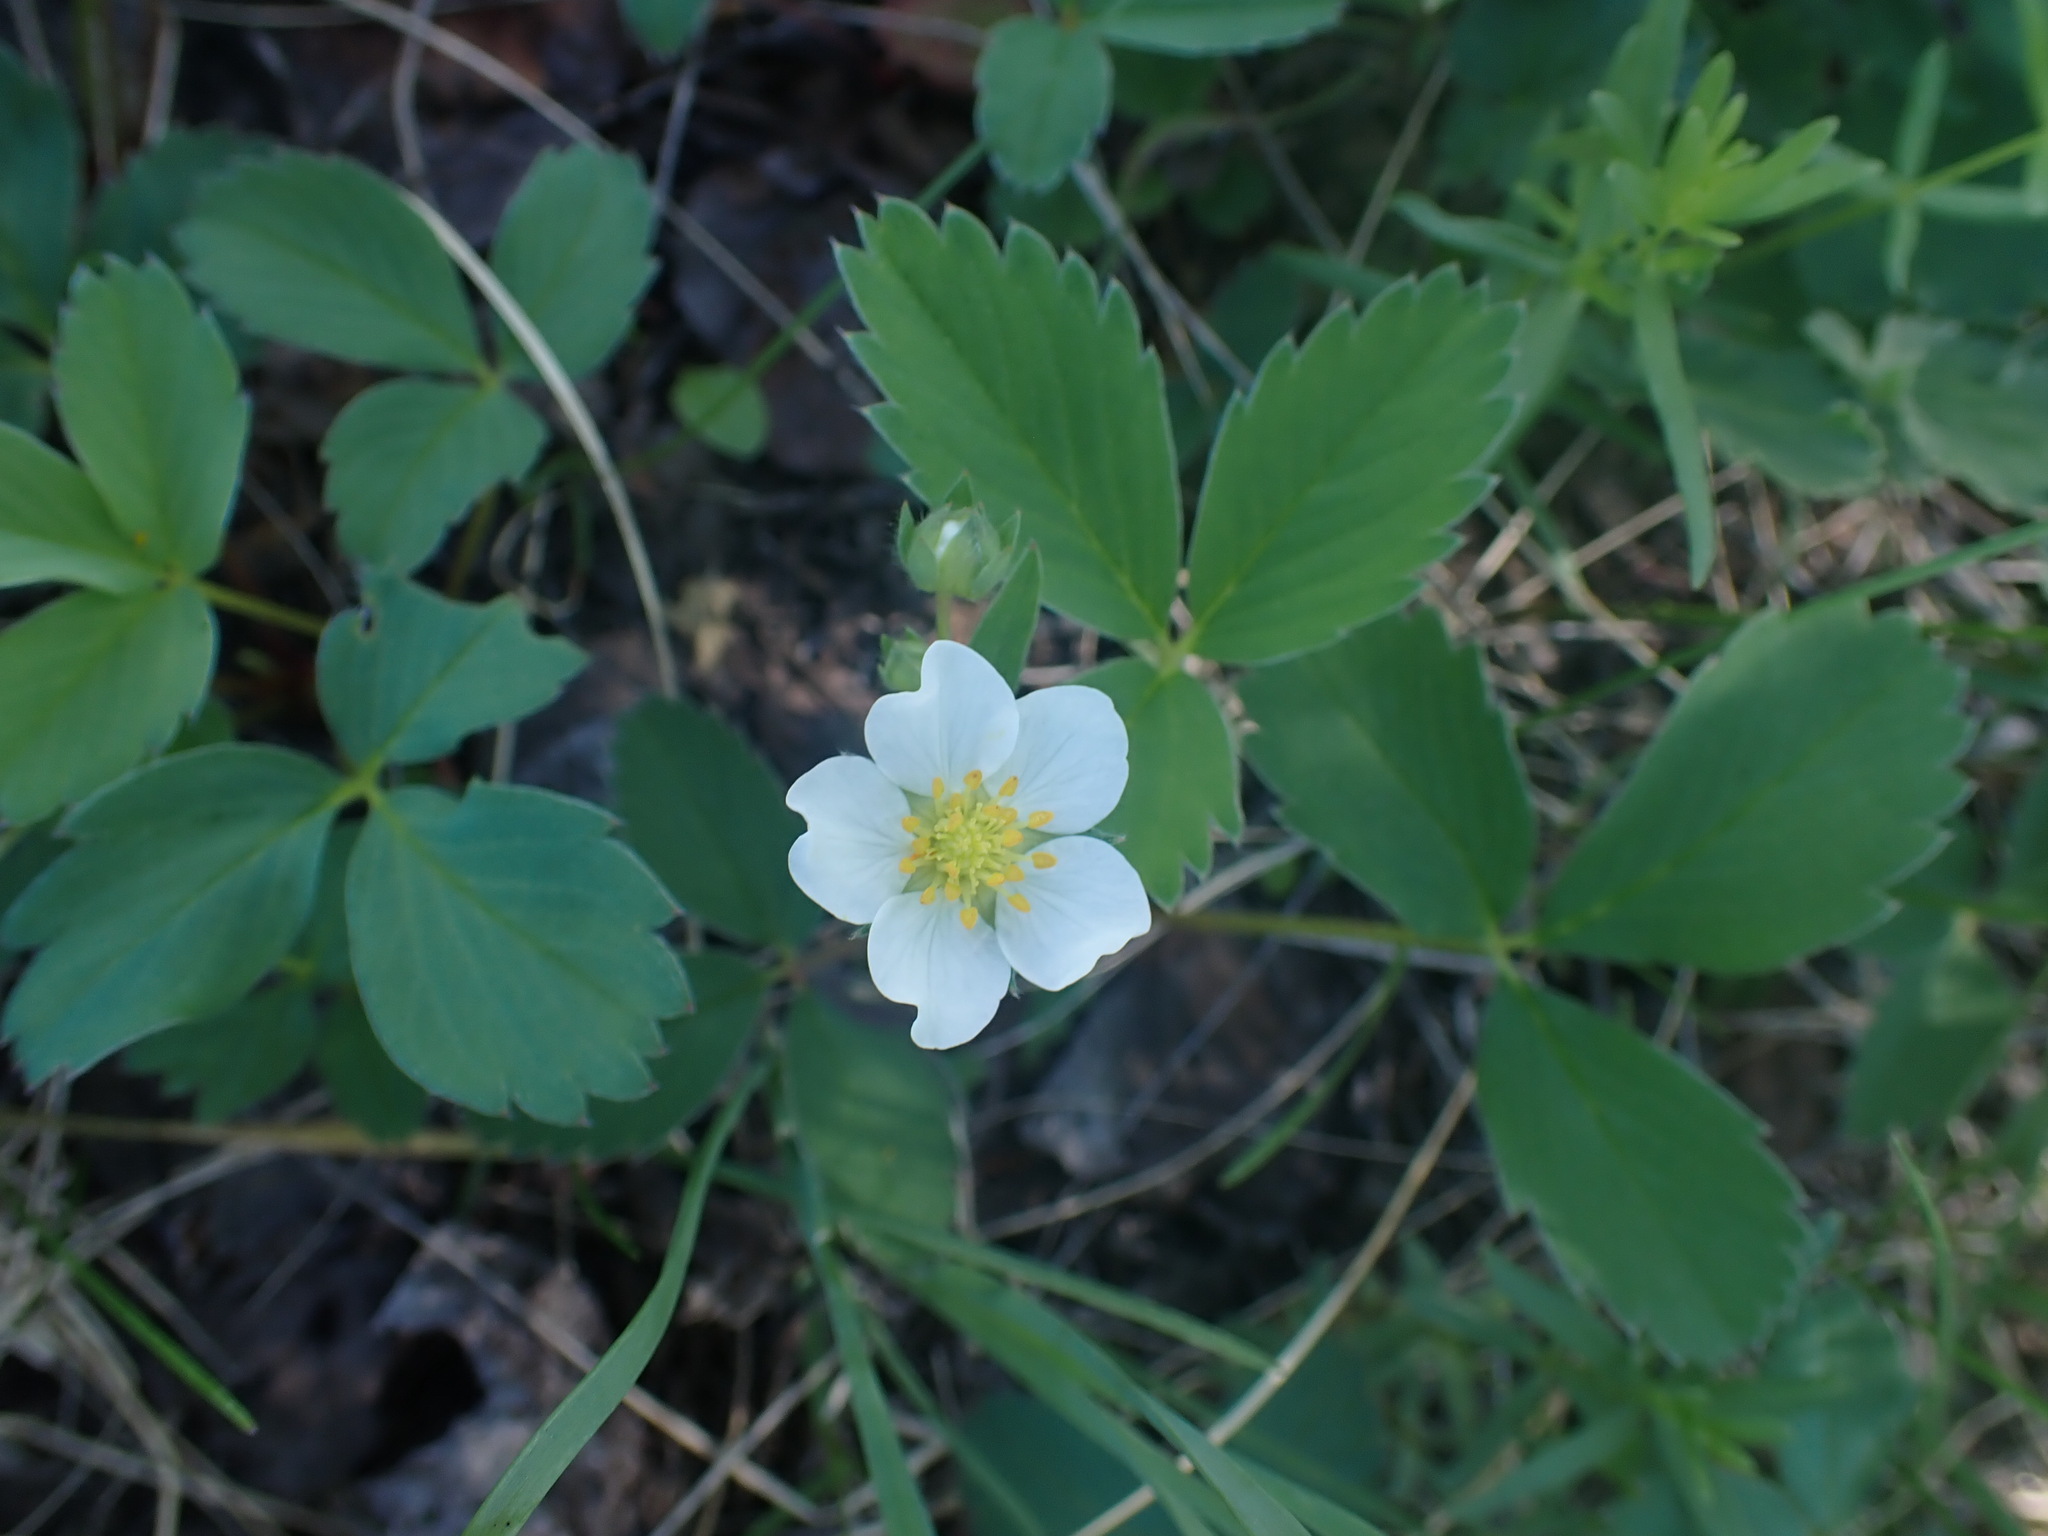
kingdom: Plantae
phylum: Tracheophyta
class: Magnoliopsida
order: Rosales
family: Rosaceae
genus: Fragaria
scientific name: Fragaria virginiana
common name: Thickleaved wild strawberry
